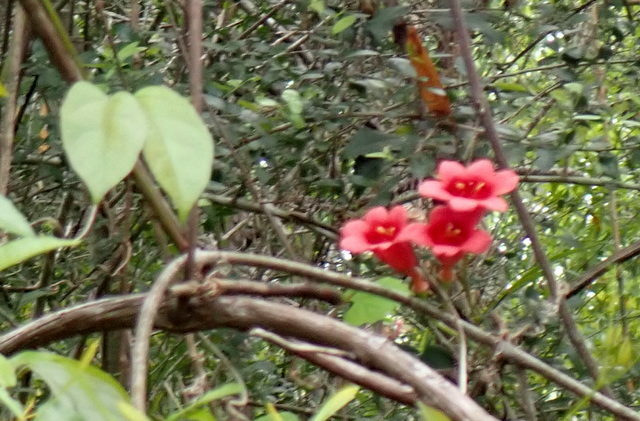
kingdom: Plantae
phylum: Tracheophyta
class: Magnoliopsida
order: Lamiales
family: Bignoniaceae
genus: Bignonia
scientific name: Bignonia capreolata
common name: Crossvine
